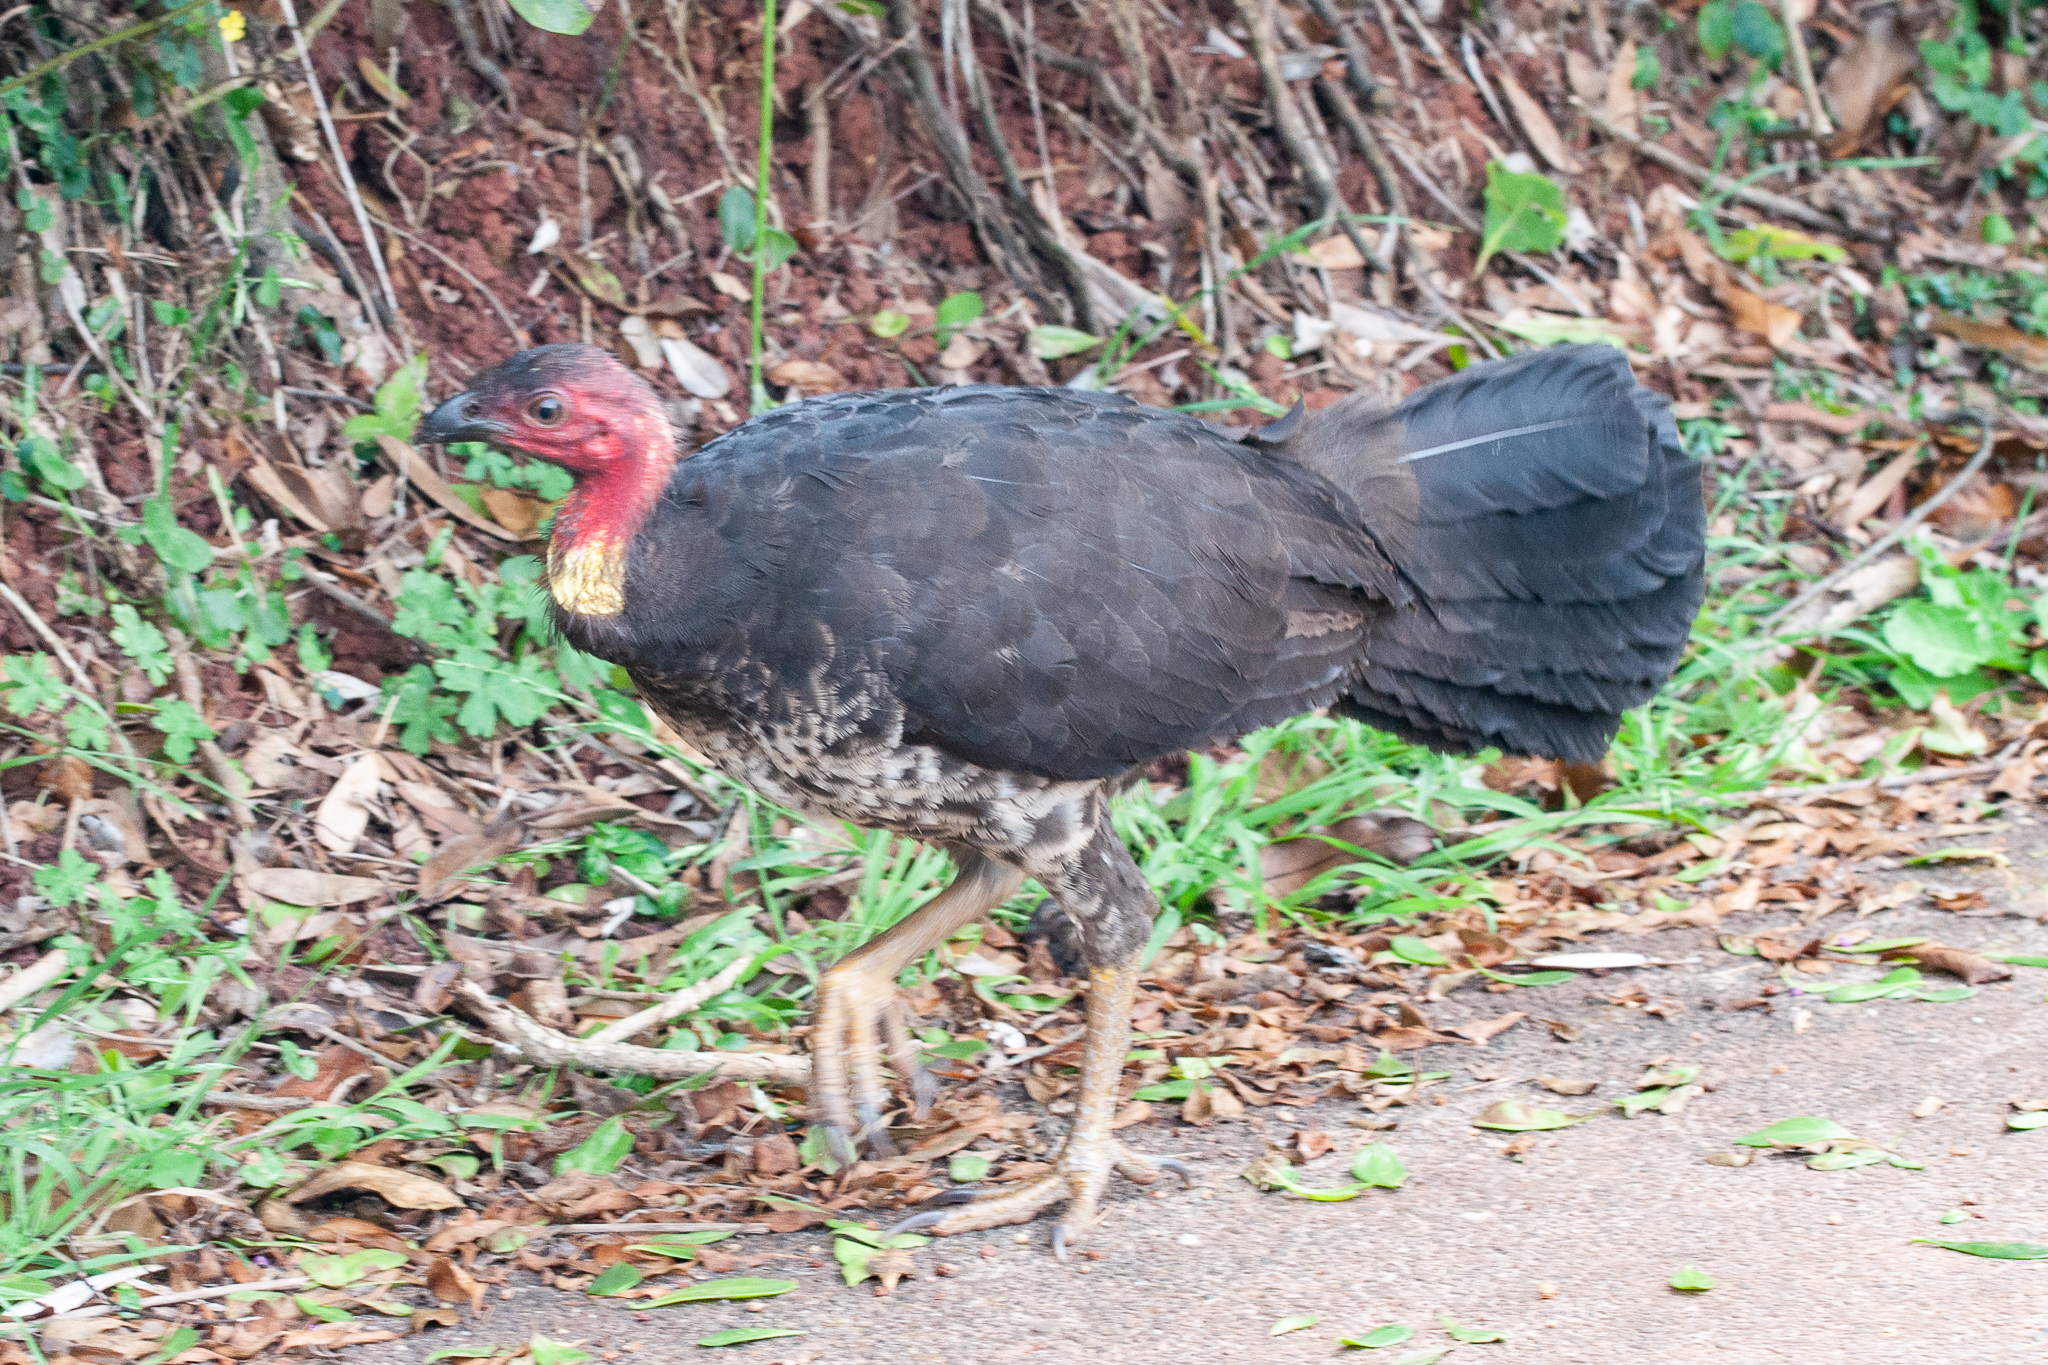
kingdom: Animalia
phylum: Chordata
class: Aves
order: Galliformes
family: Megapodiidae
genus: Alectura
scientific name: Alectura lathami
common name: Australian brushturkey
